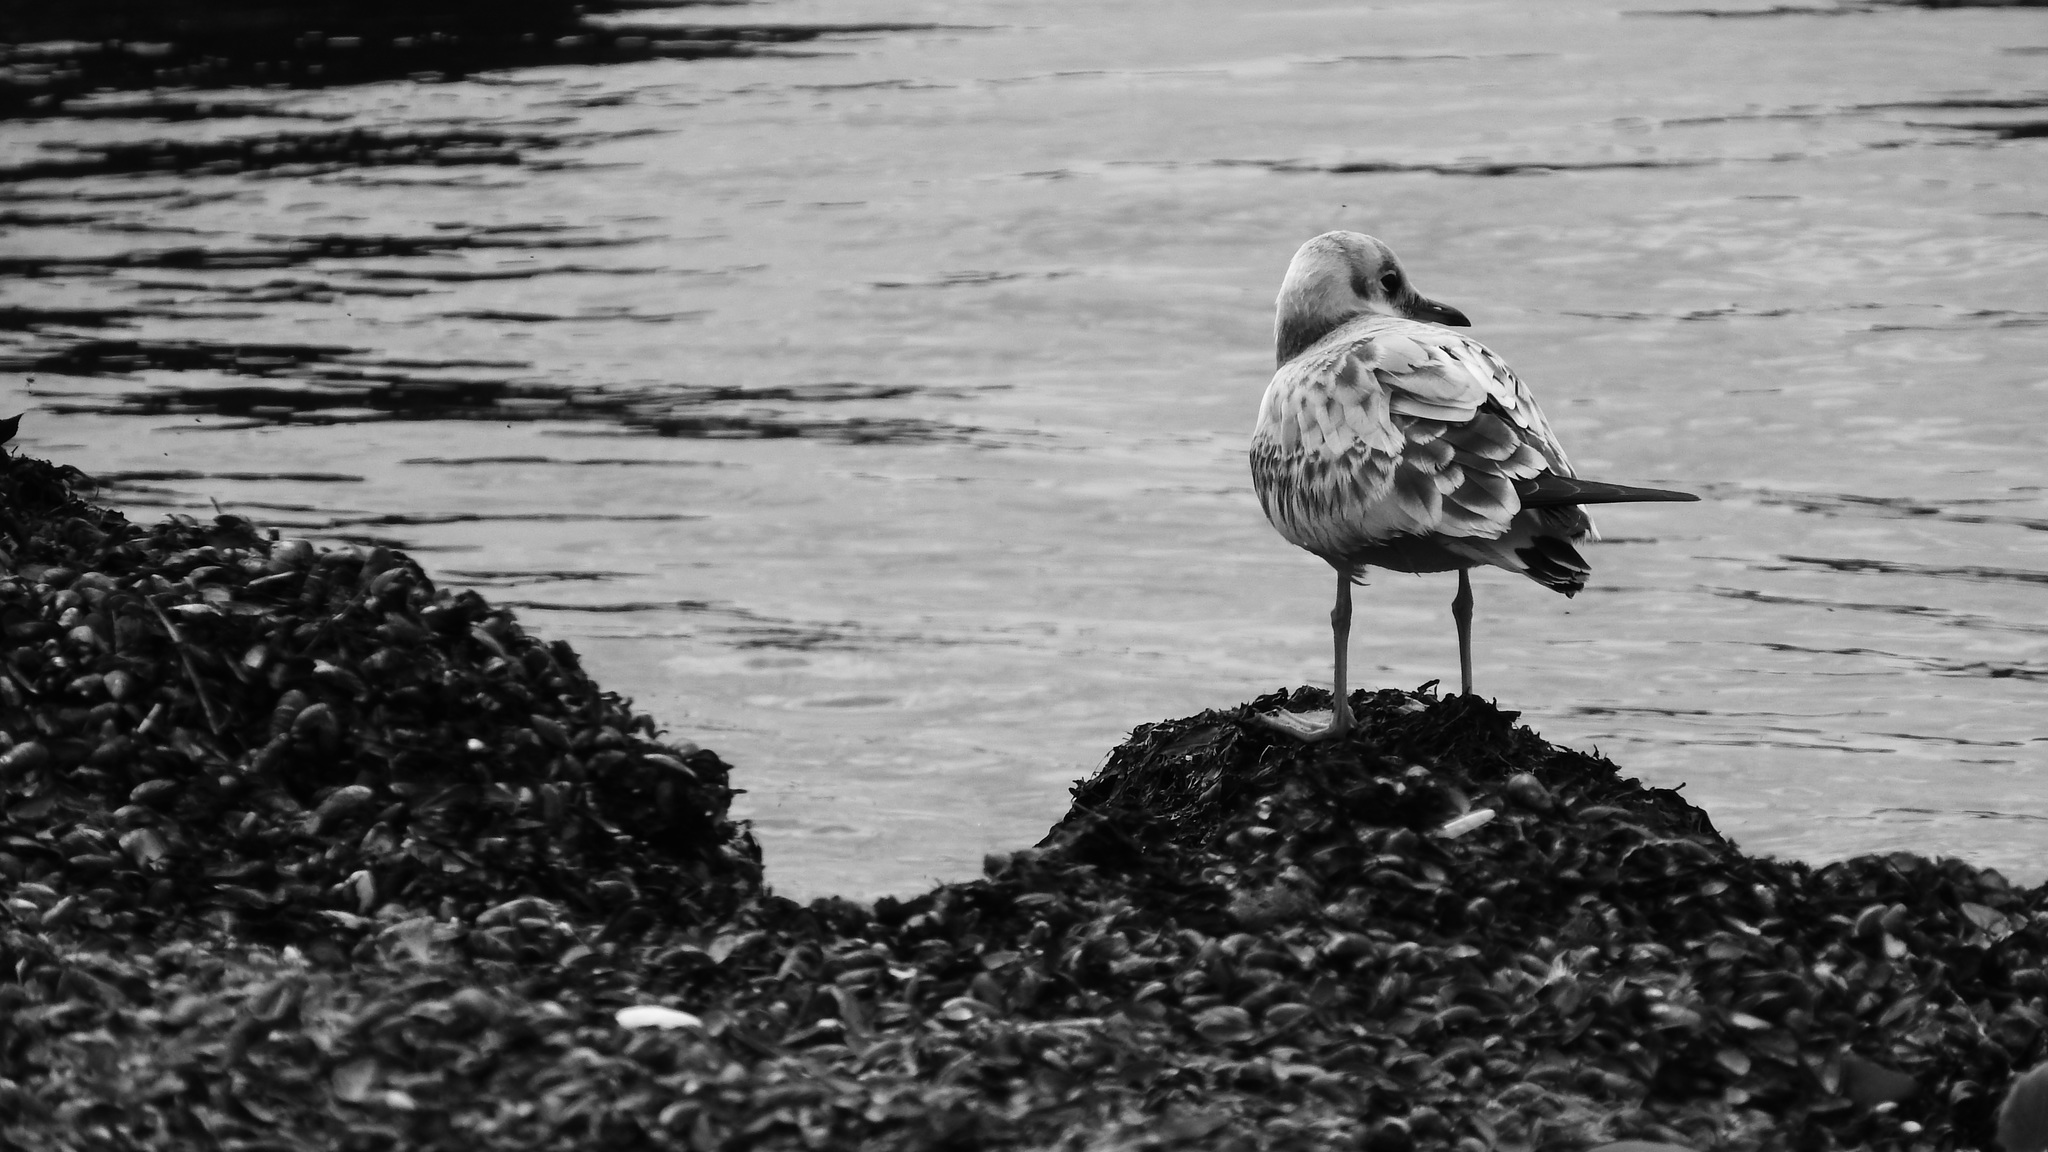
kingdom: Animalia
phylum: Chordata
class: Aves
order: Charadriiformes
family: Laridae
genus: Chroicocephalus
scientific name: Chroicocephalus ridibundus
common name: Black-headed gull
